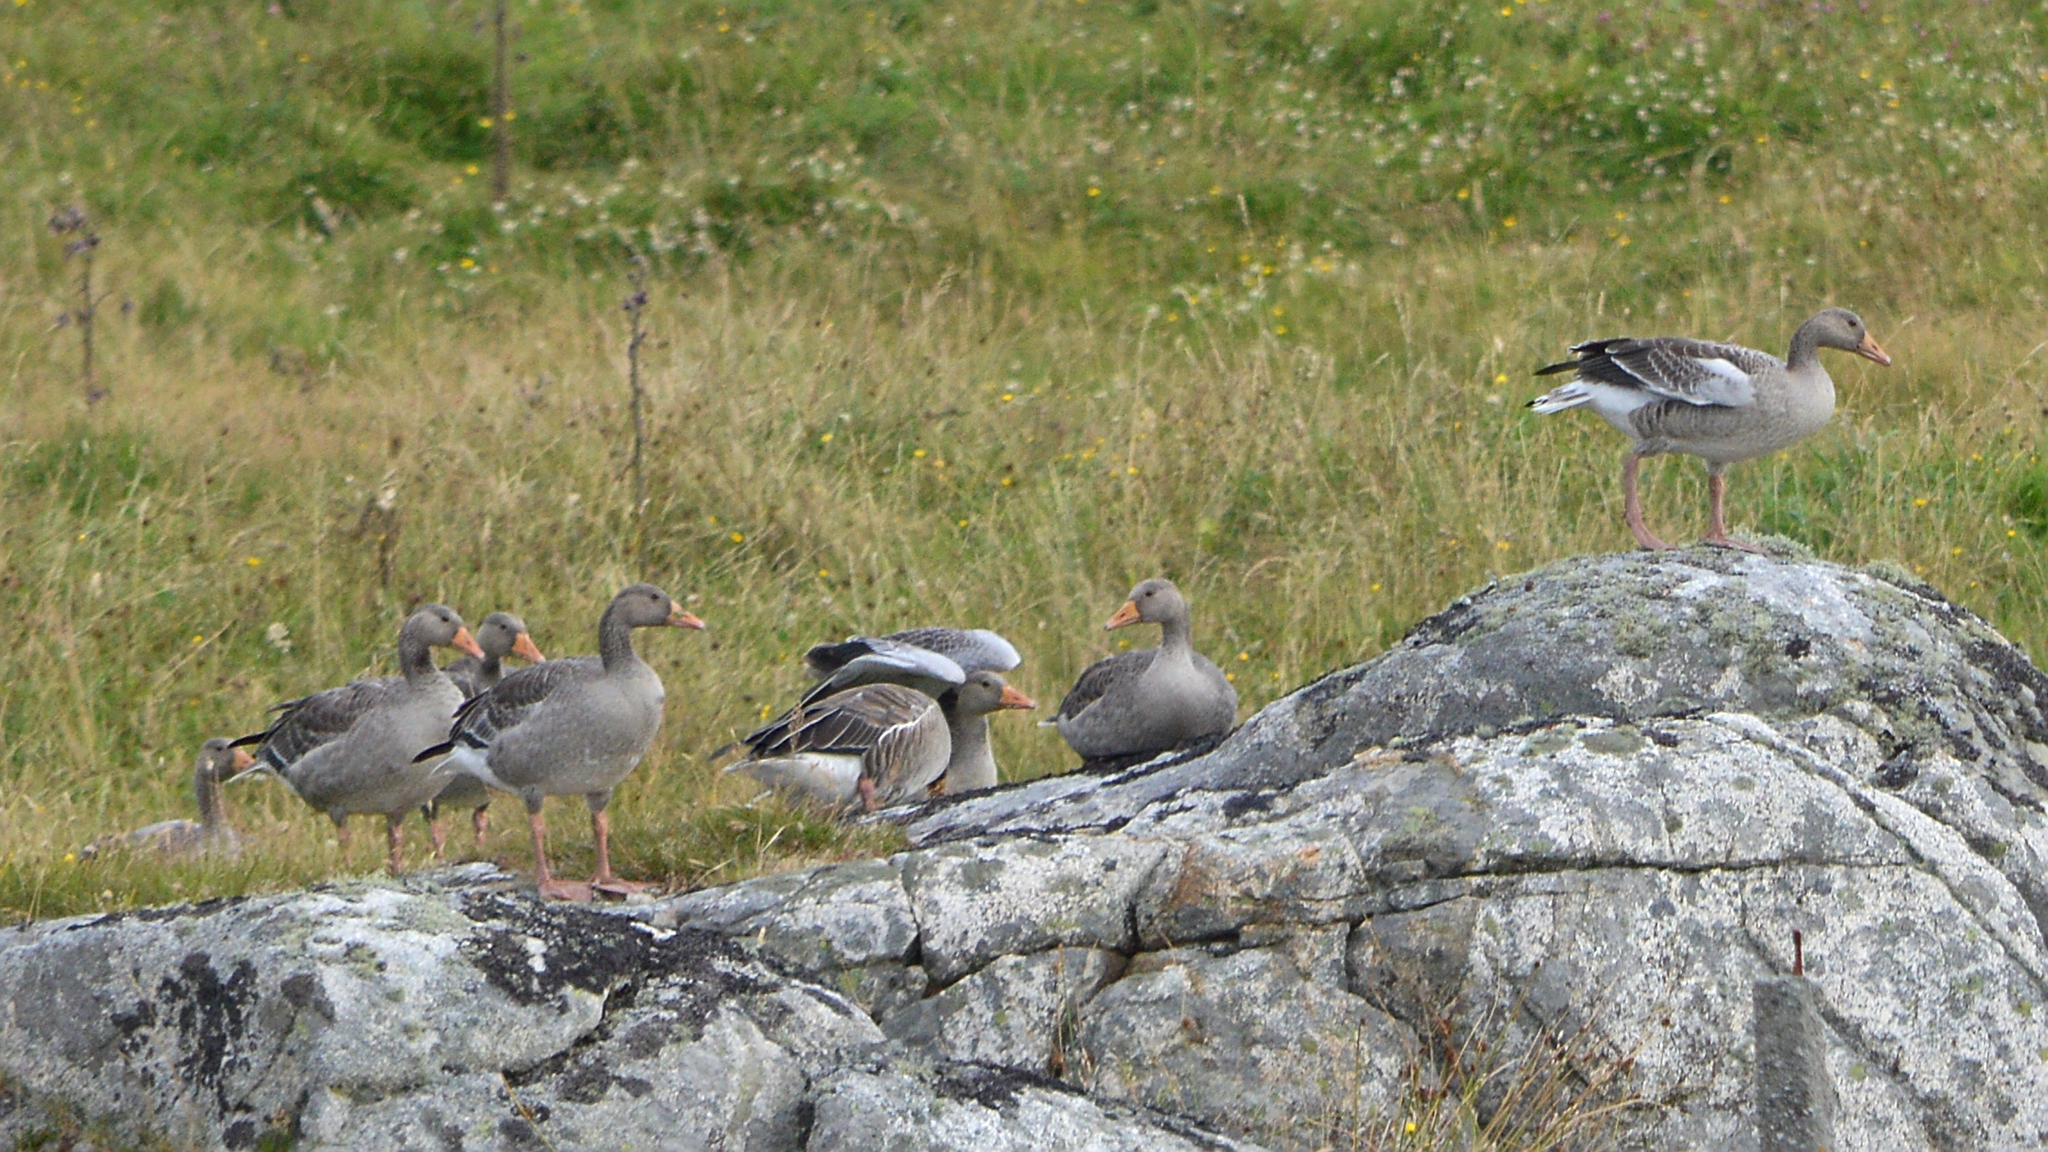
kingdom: Animalia
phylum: Chordata
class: Aves
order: Anseriformes
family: Anatidae
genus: Anser
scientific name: Anser anser
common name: Greylag goose
